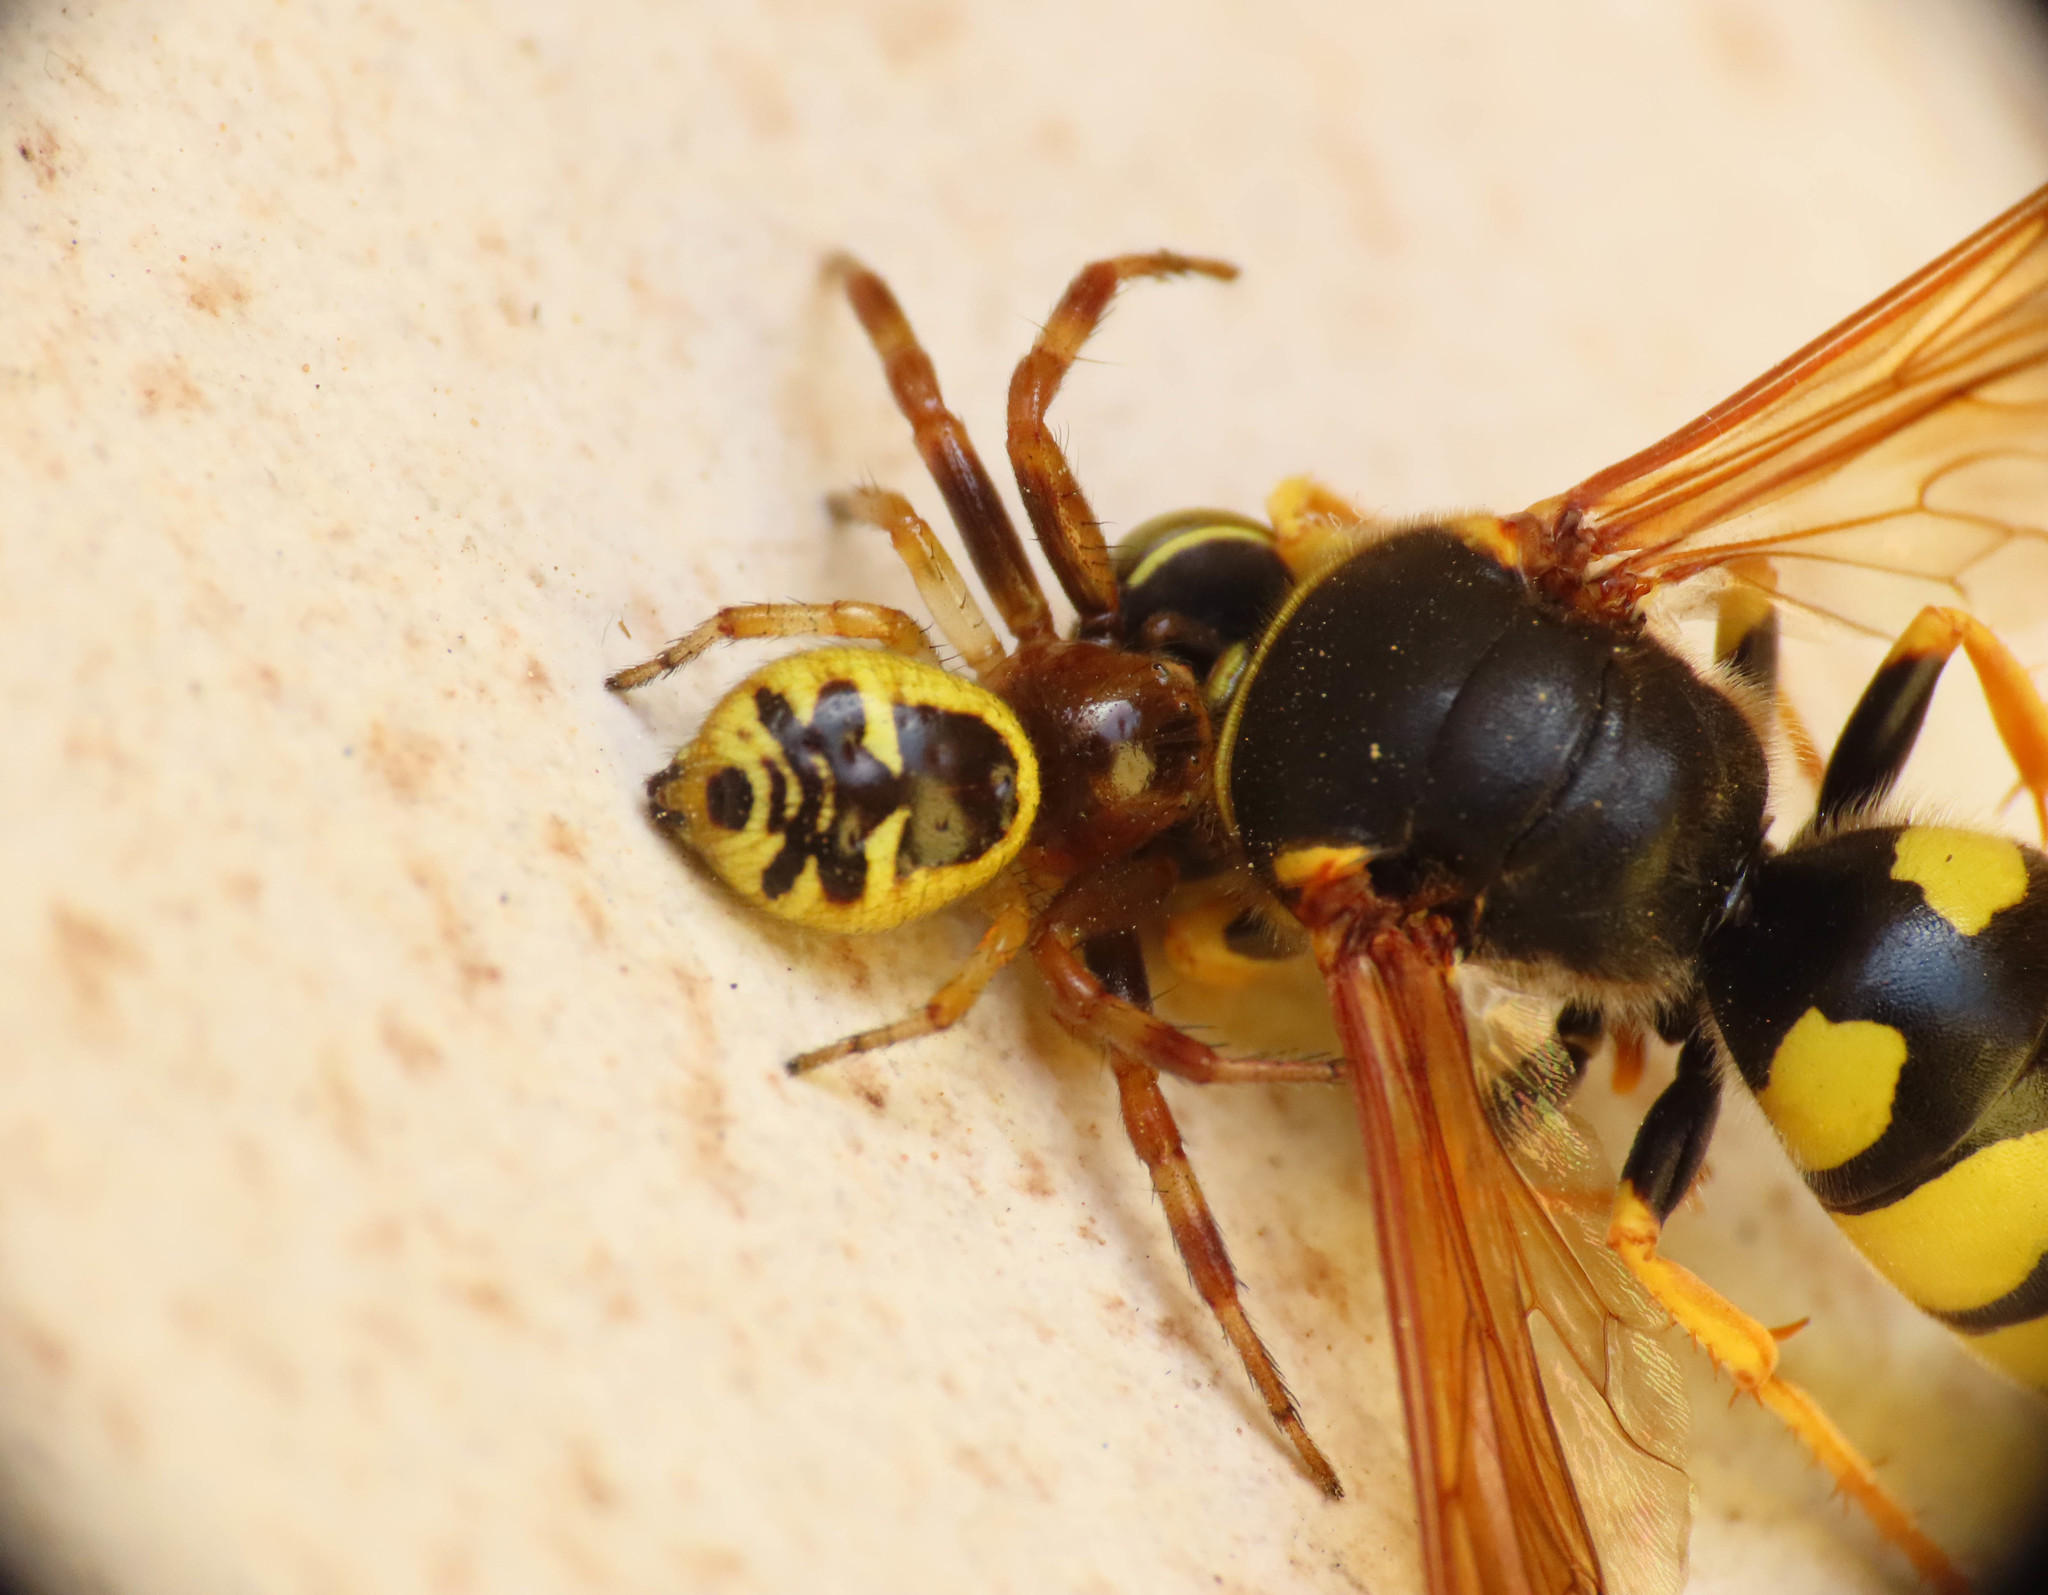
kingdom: Animalia
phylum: Arthropoda
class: Arachnida
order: Araneae
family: Thomisidae
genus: Synema
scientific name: Synema globosum
